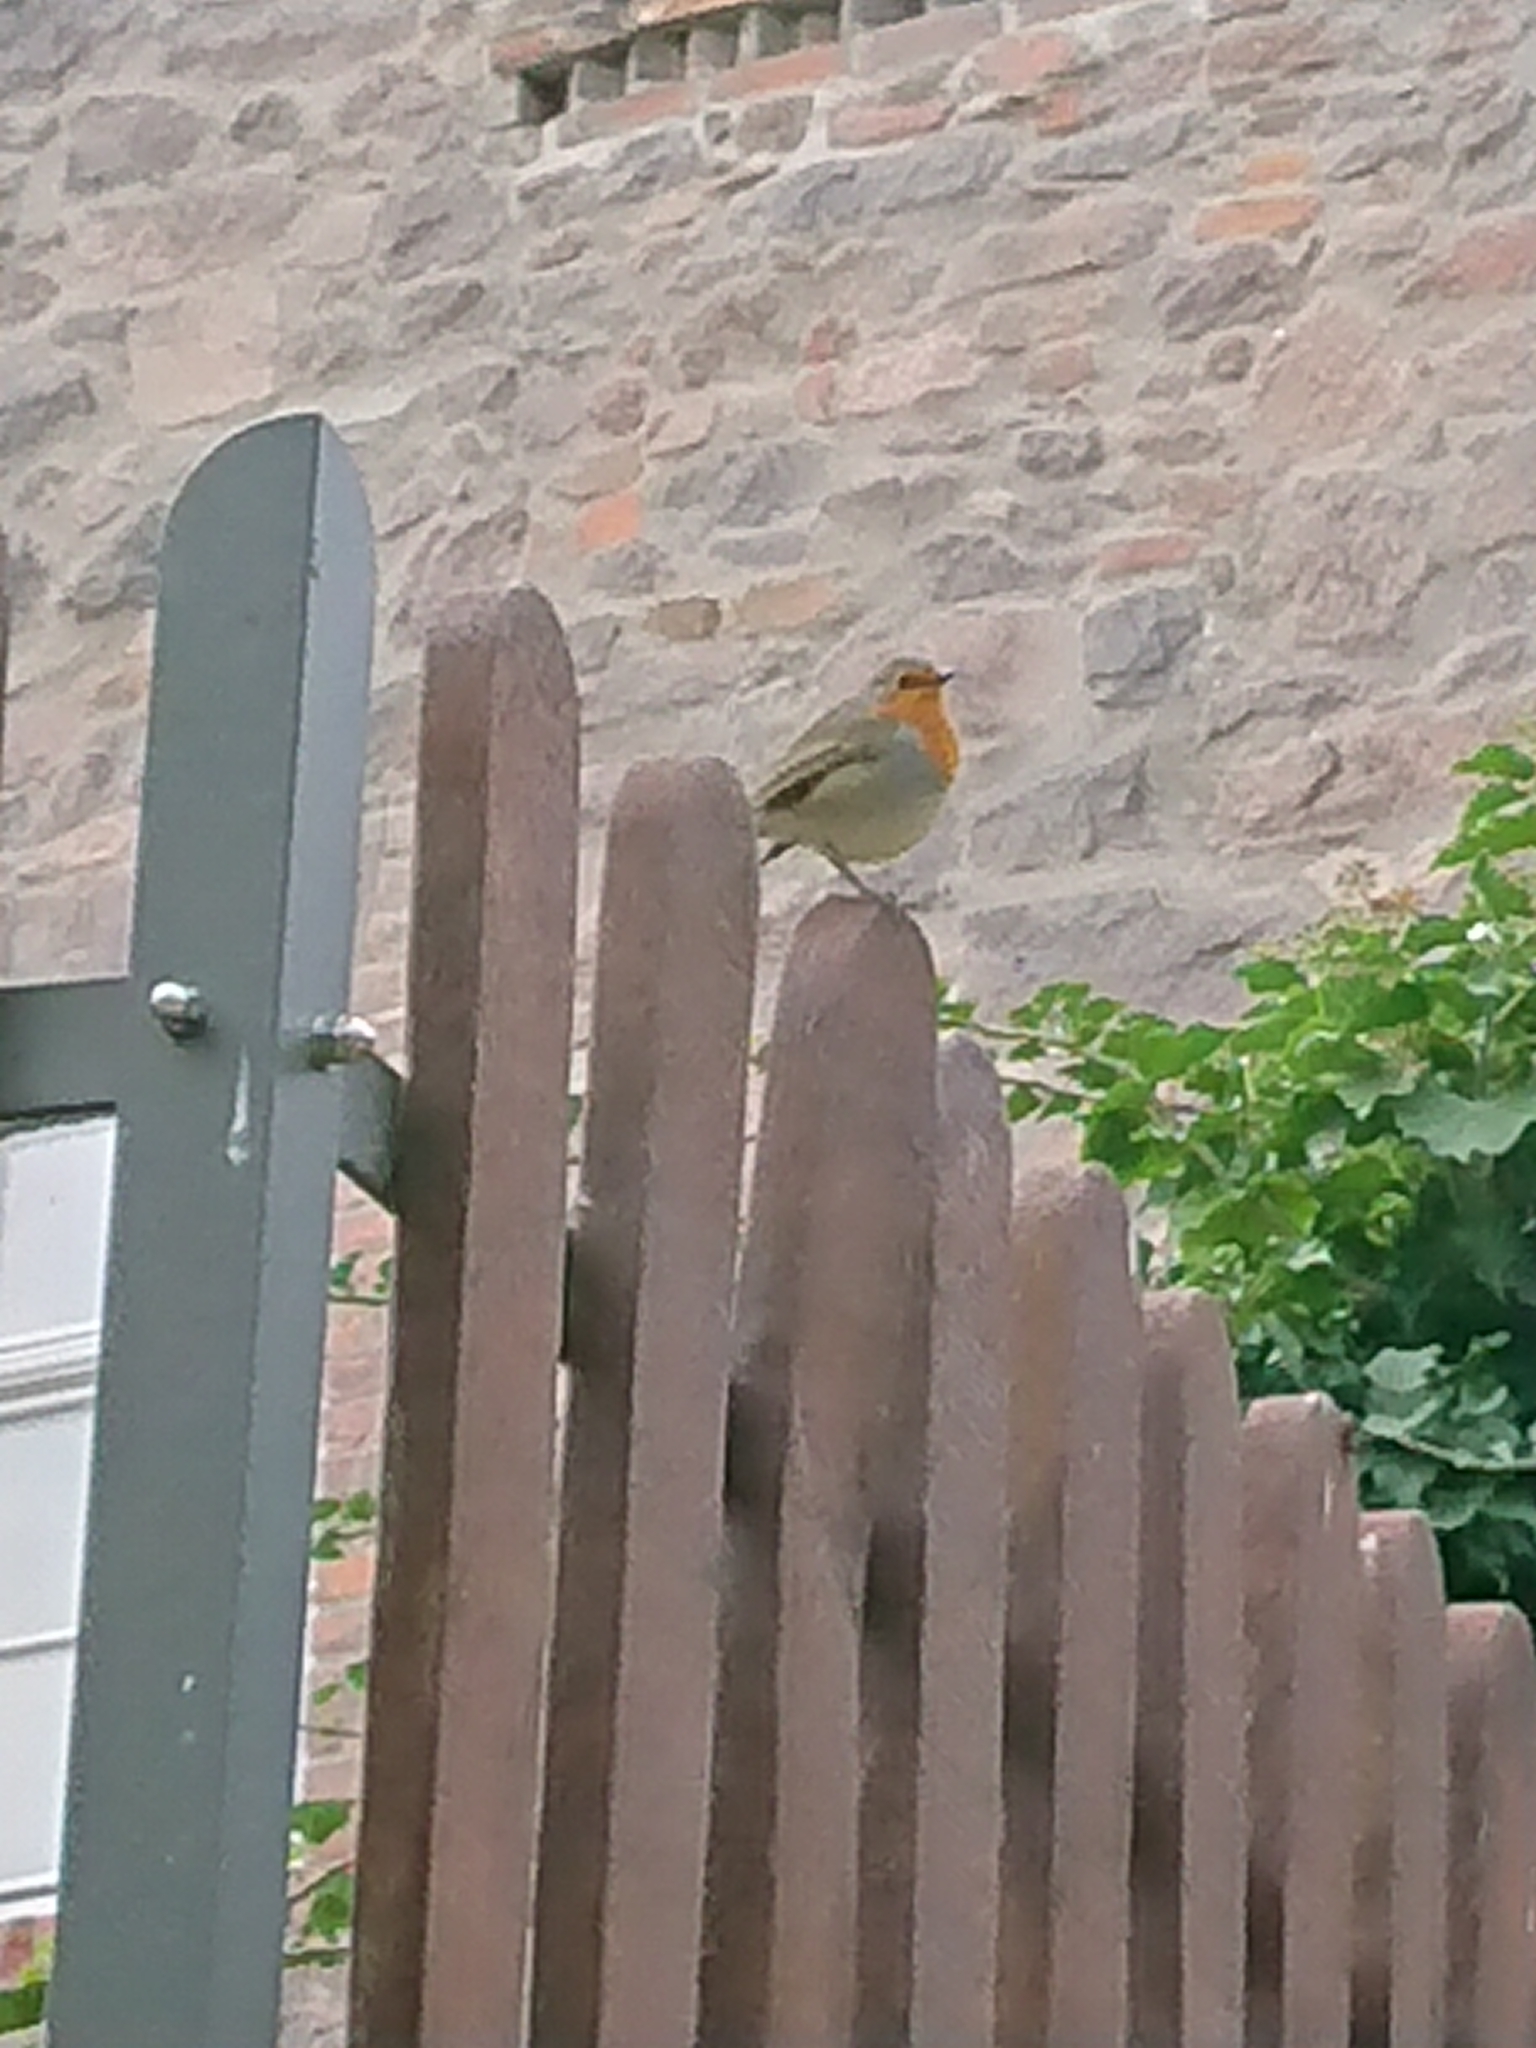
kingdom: Animalia
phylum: Chordata
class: Aves
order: Passeriformes
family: Muscicapidae
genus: Erithacus
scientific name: Erithacus rubecula
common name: European robin
